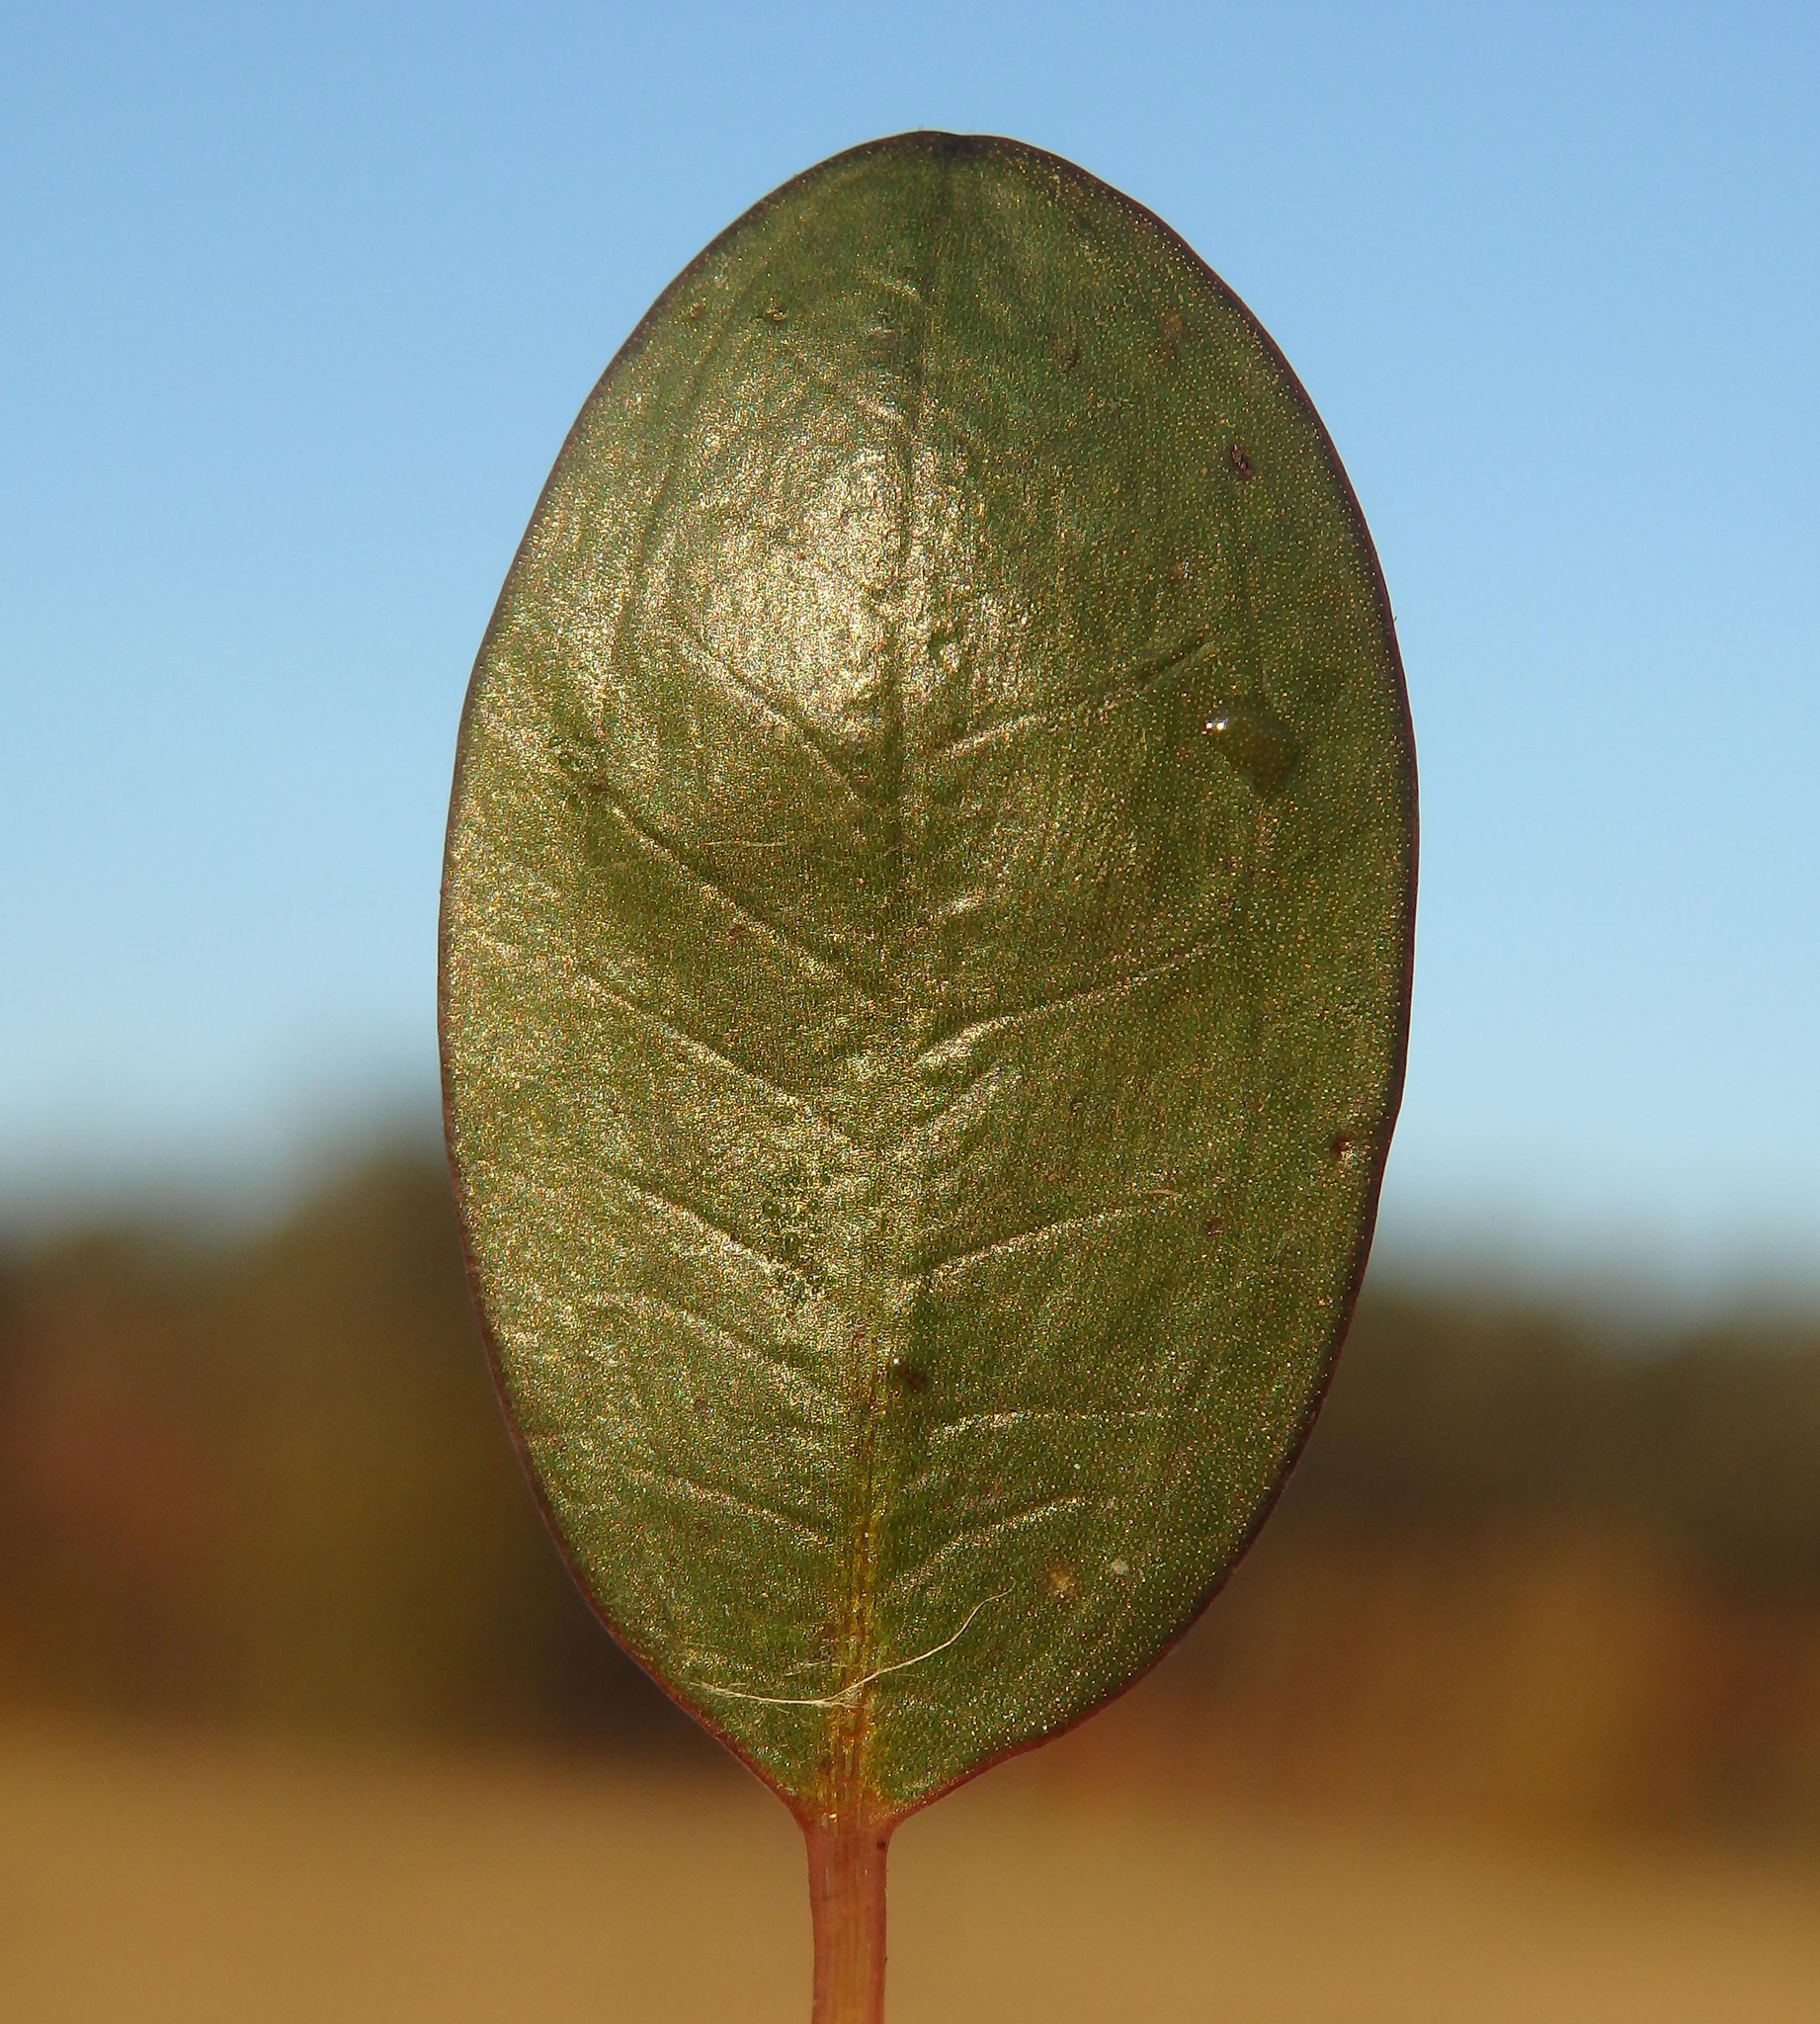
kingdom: Plantae
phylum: Tracheophyta
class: Liliopsida
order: Alismatales
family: Alismataceae
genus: Luronium
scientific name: Luronium natans
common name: Floating water-plantain
